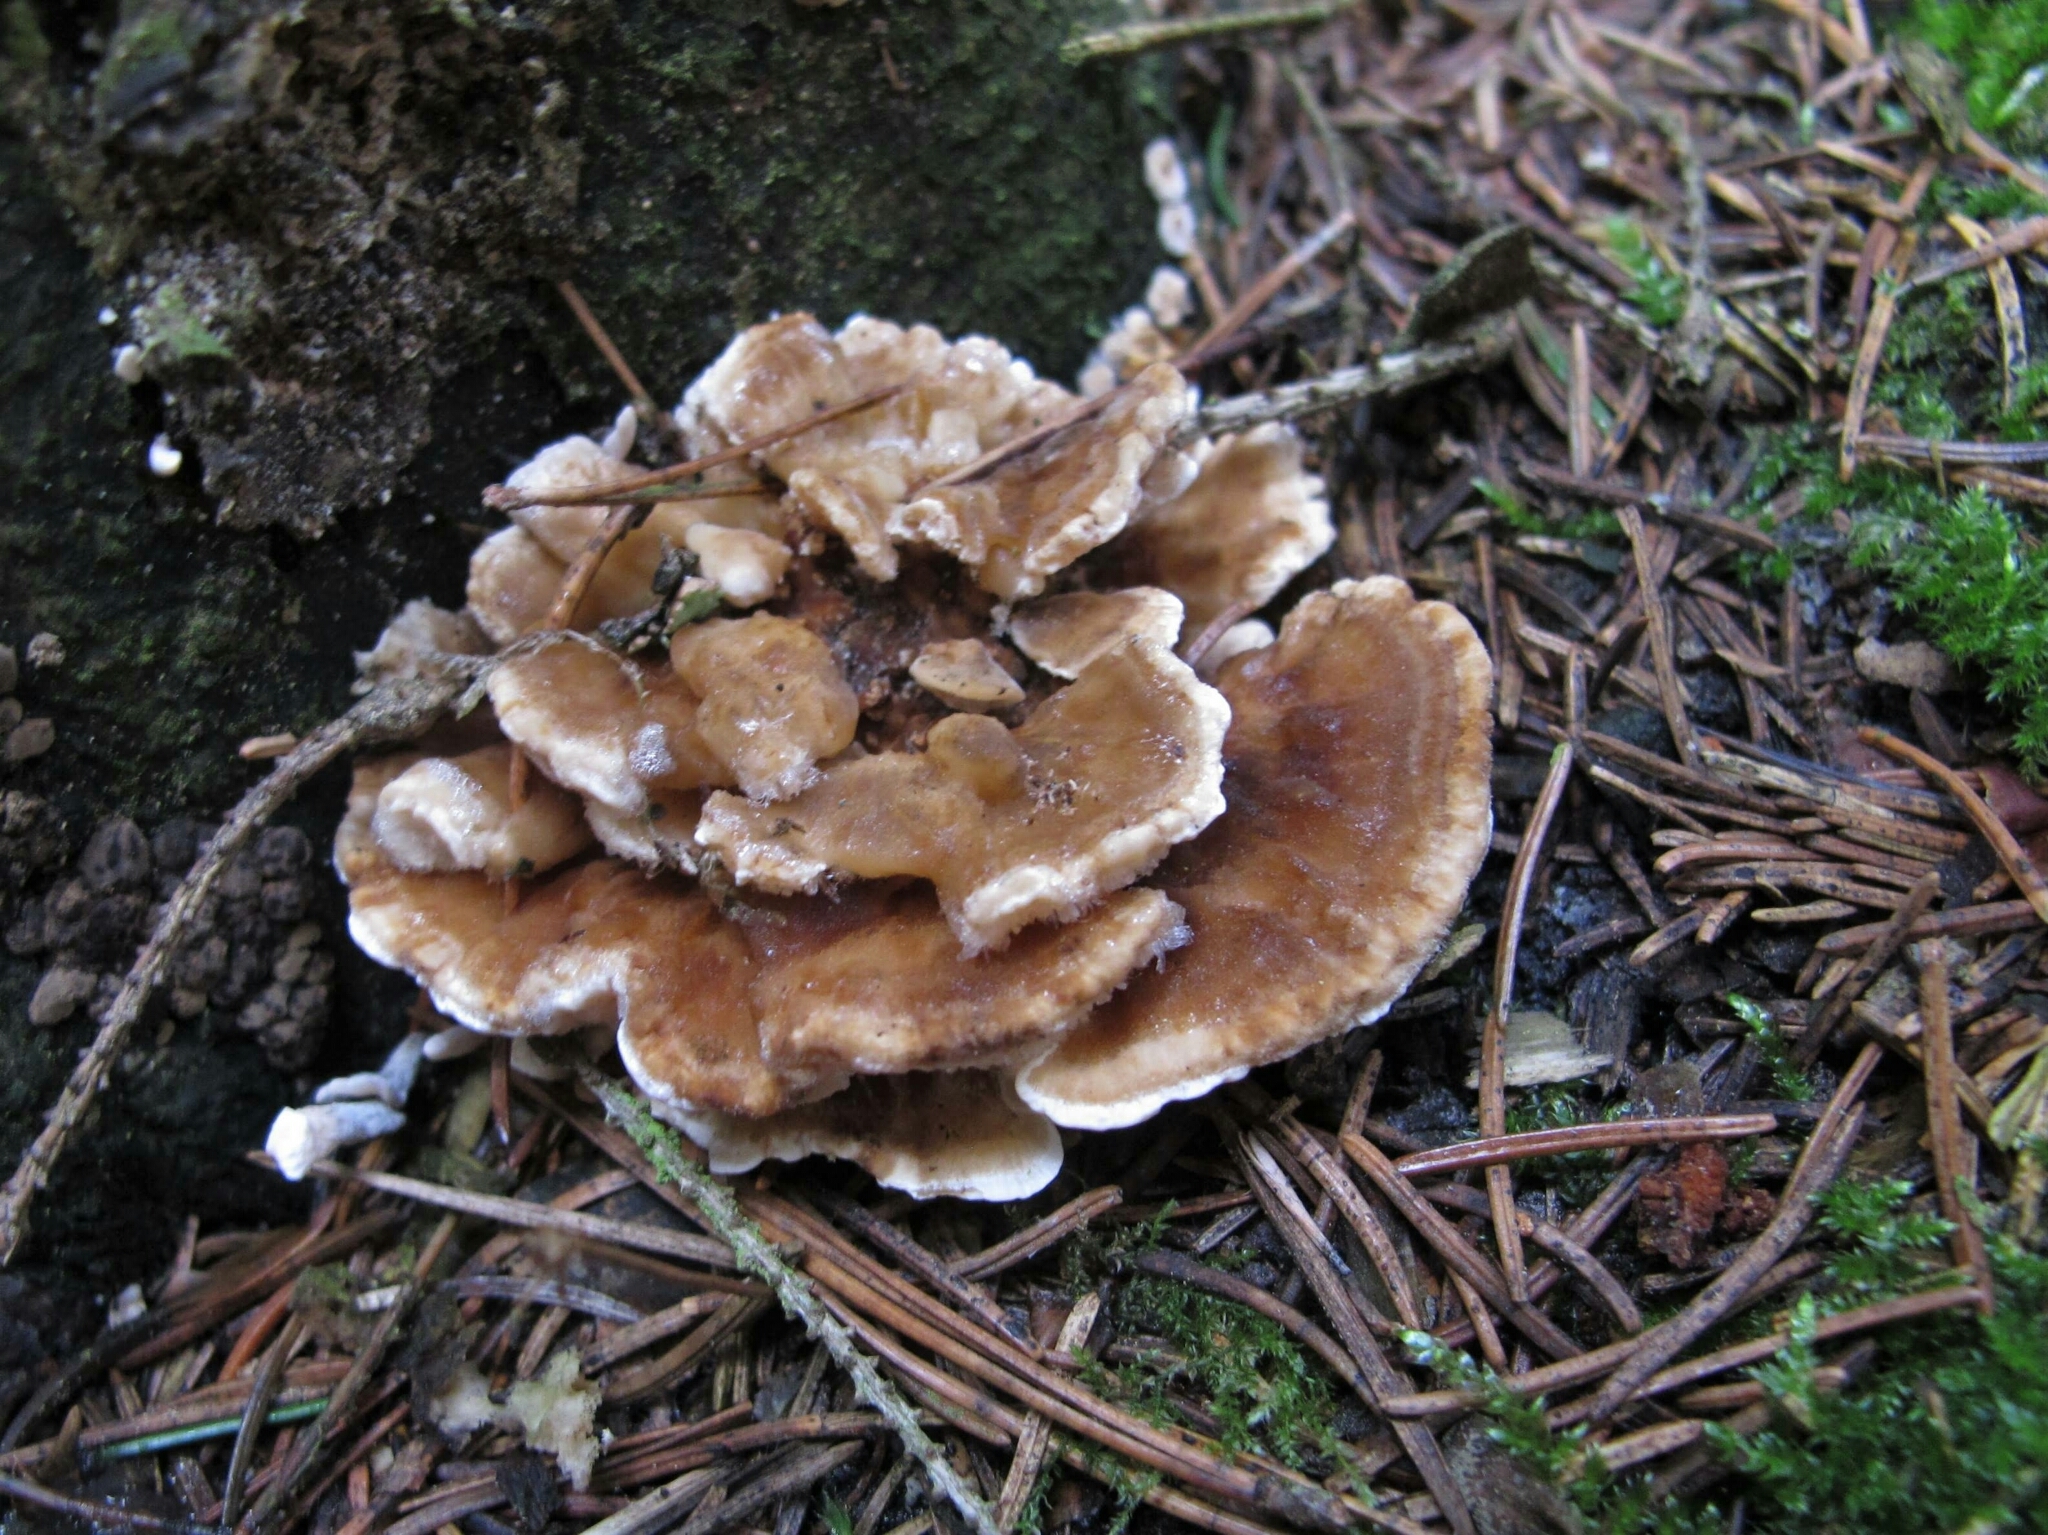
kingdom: Fungi
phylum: Basidiomycota
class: Agaricomycetes
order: Thelephorales
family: Thelephoraceae
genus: Thelephora
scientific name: Thelephora terrestris
